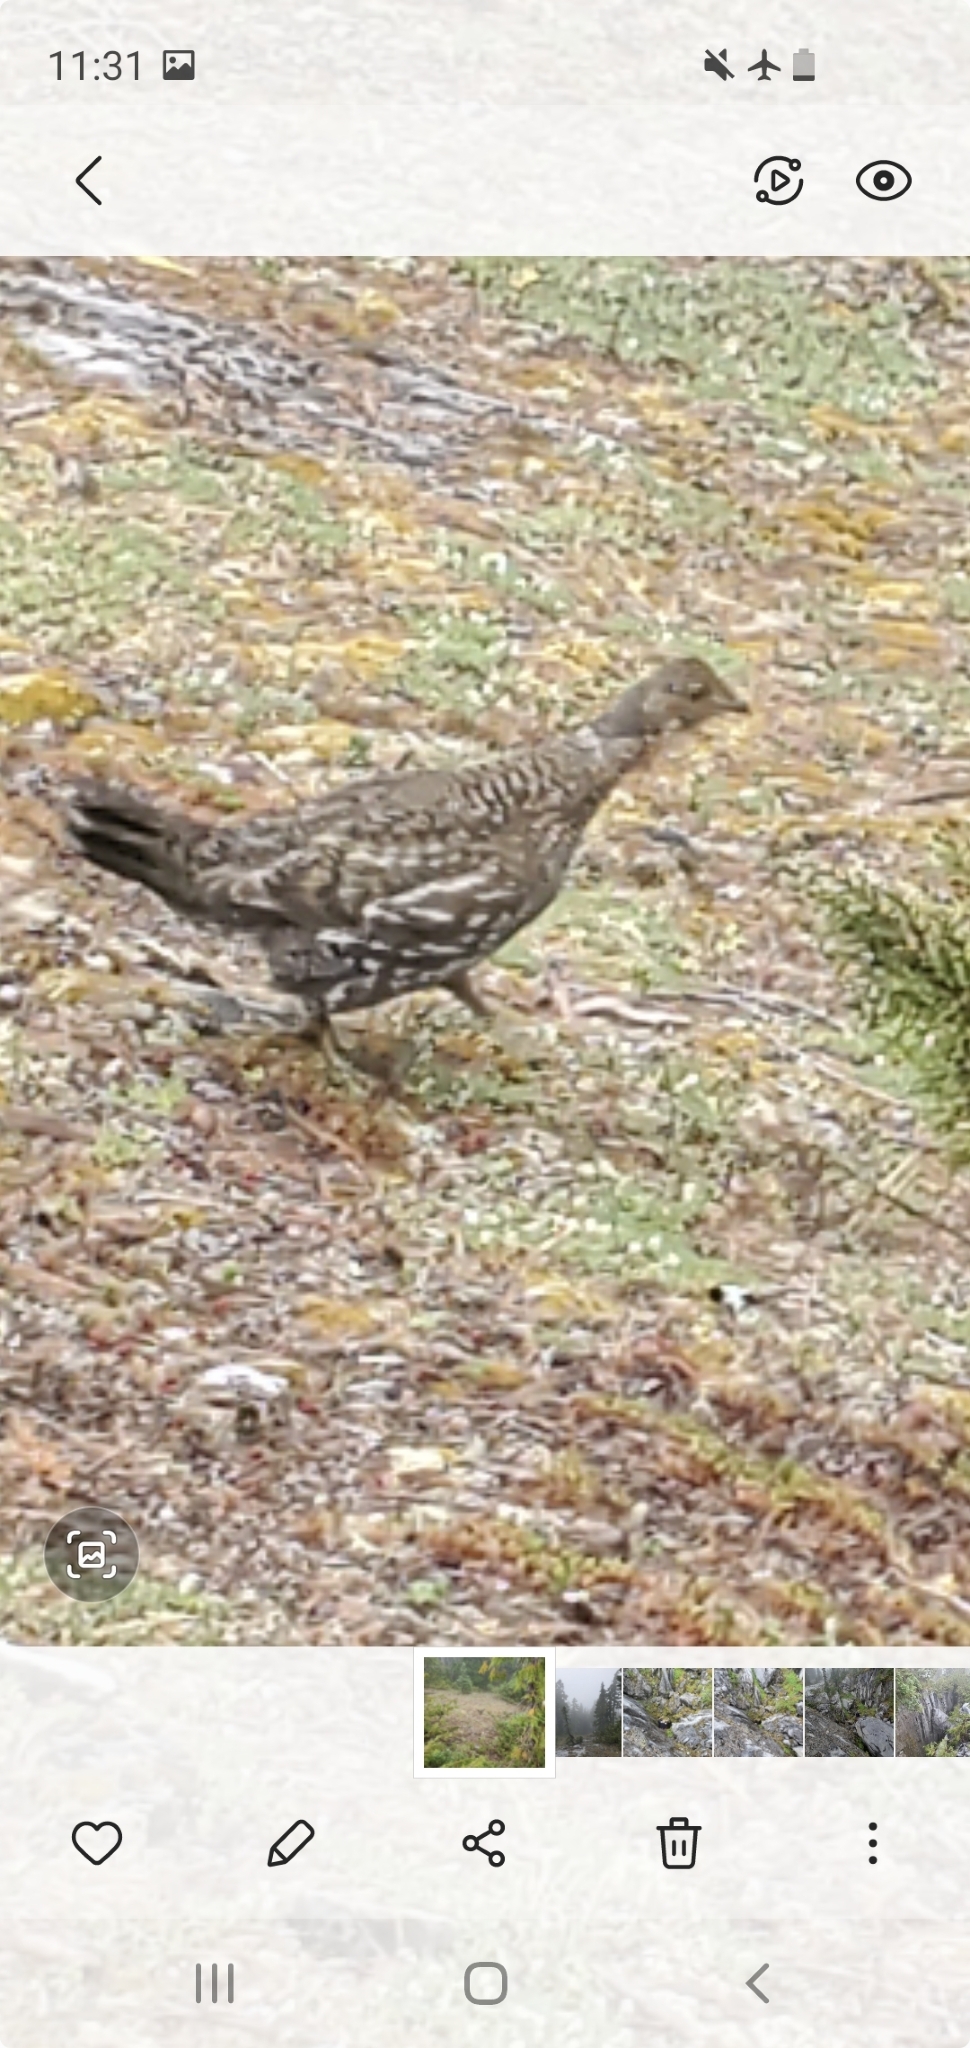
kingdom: Animalia
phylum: Chordata
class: Aves
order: Galliformes
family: Phasianidae
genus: Dendragapus
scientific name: Dendragapus fuliginosus
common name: Sooty grouse
